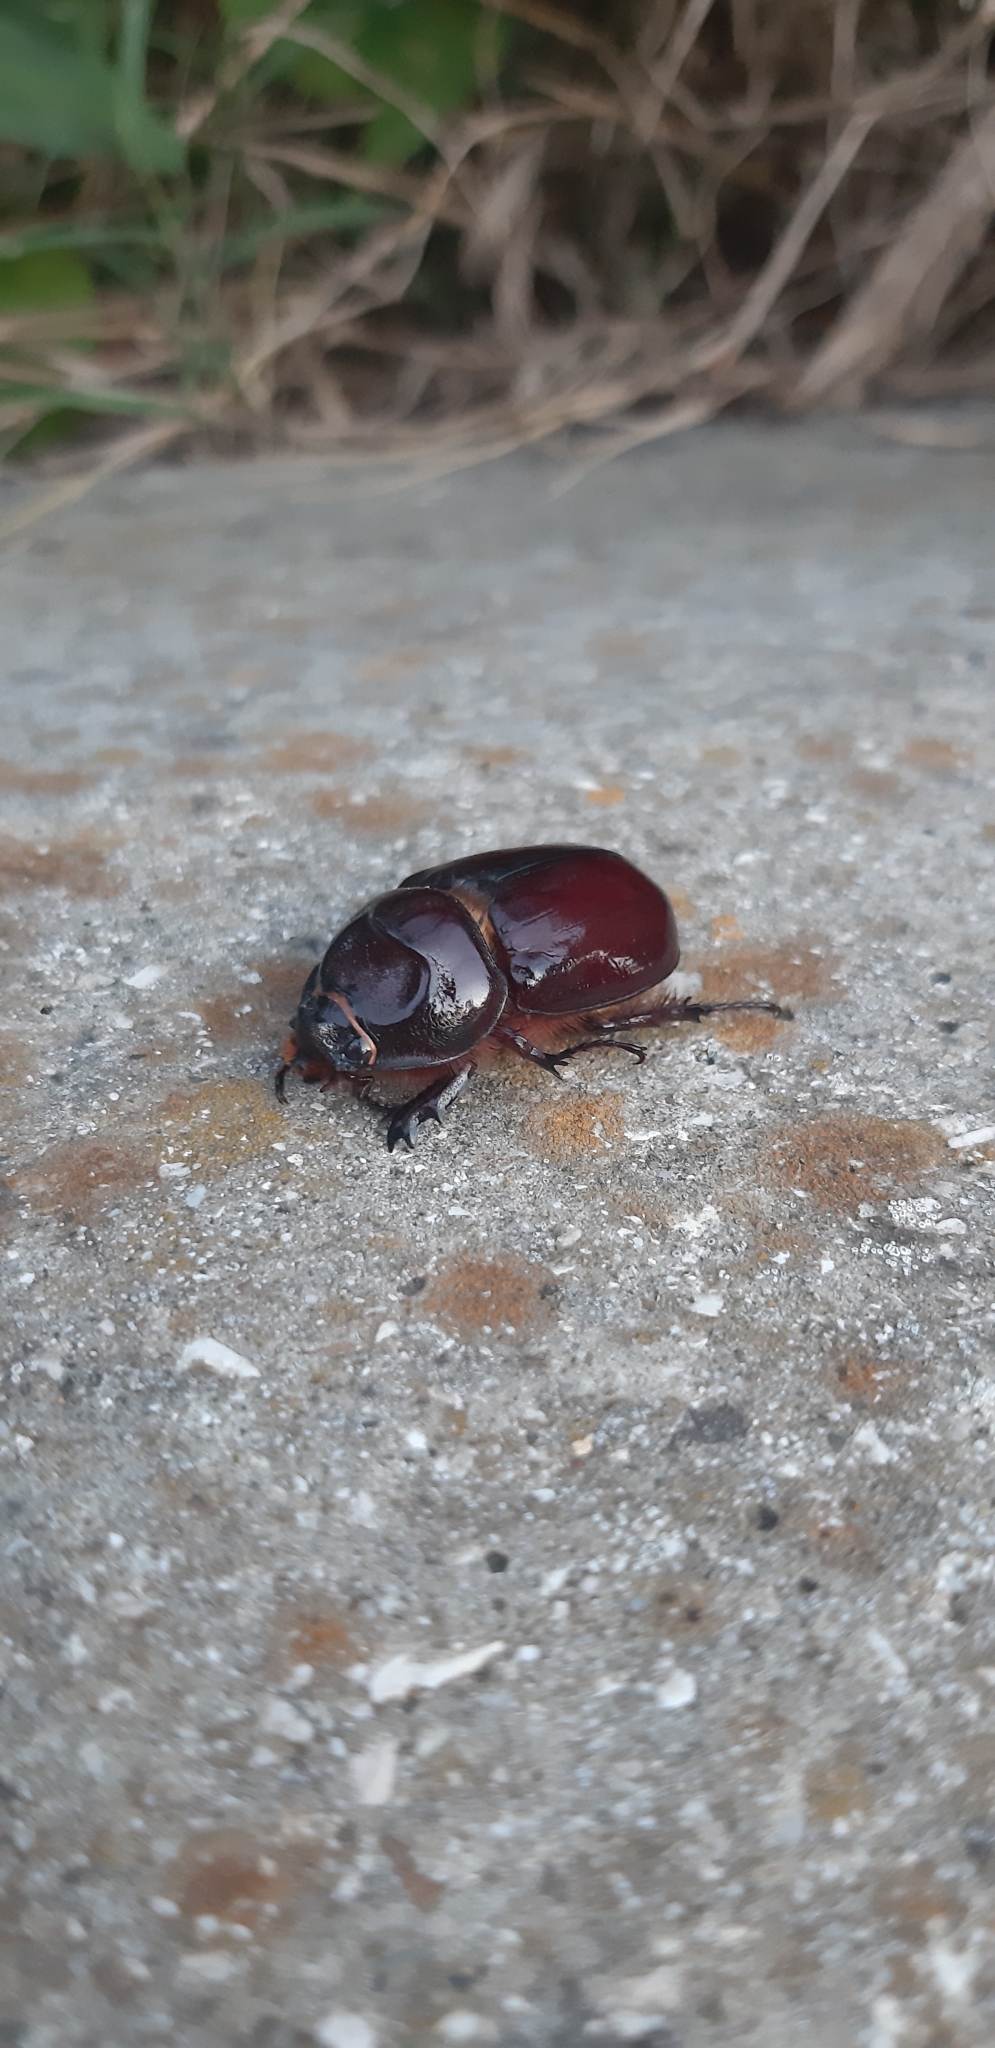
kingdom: Animalia
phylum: Arthropoda
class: Insecta
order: Coleoptera
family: Scarabaeidae
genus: Oryctes
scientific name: Oryctes nasicornis
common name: European rhinoceros beetle
